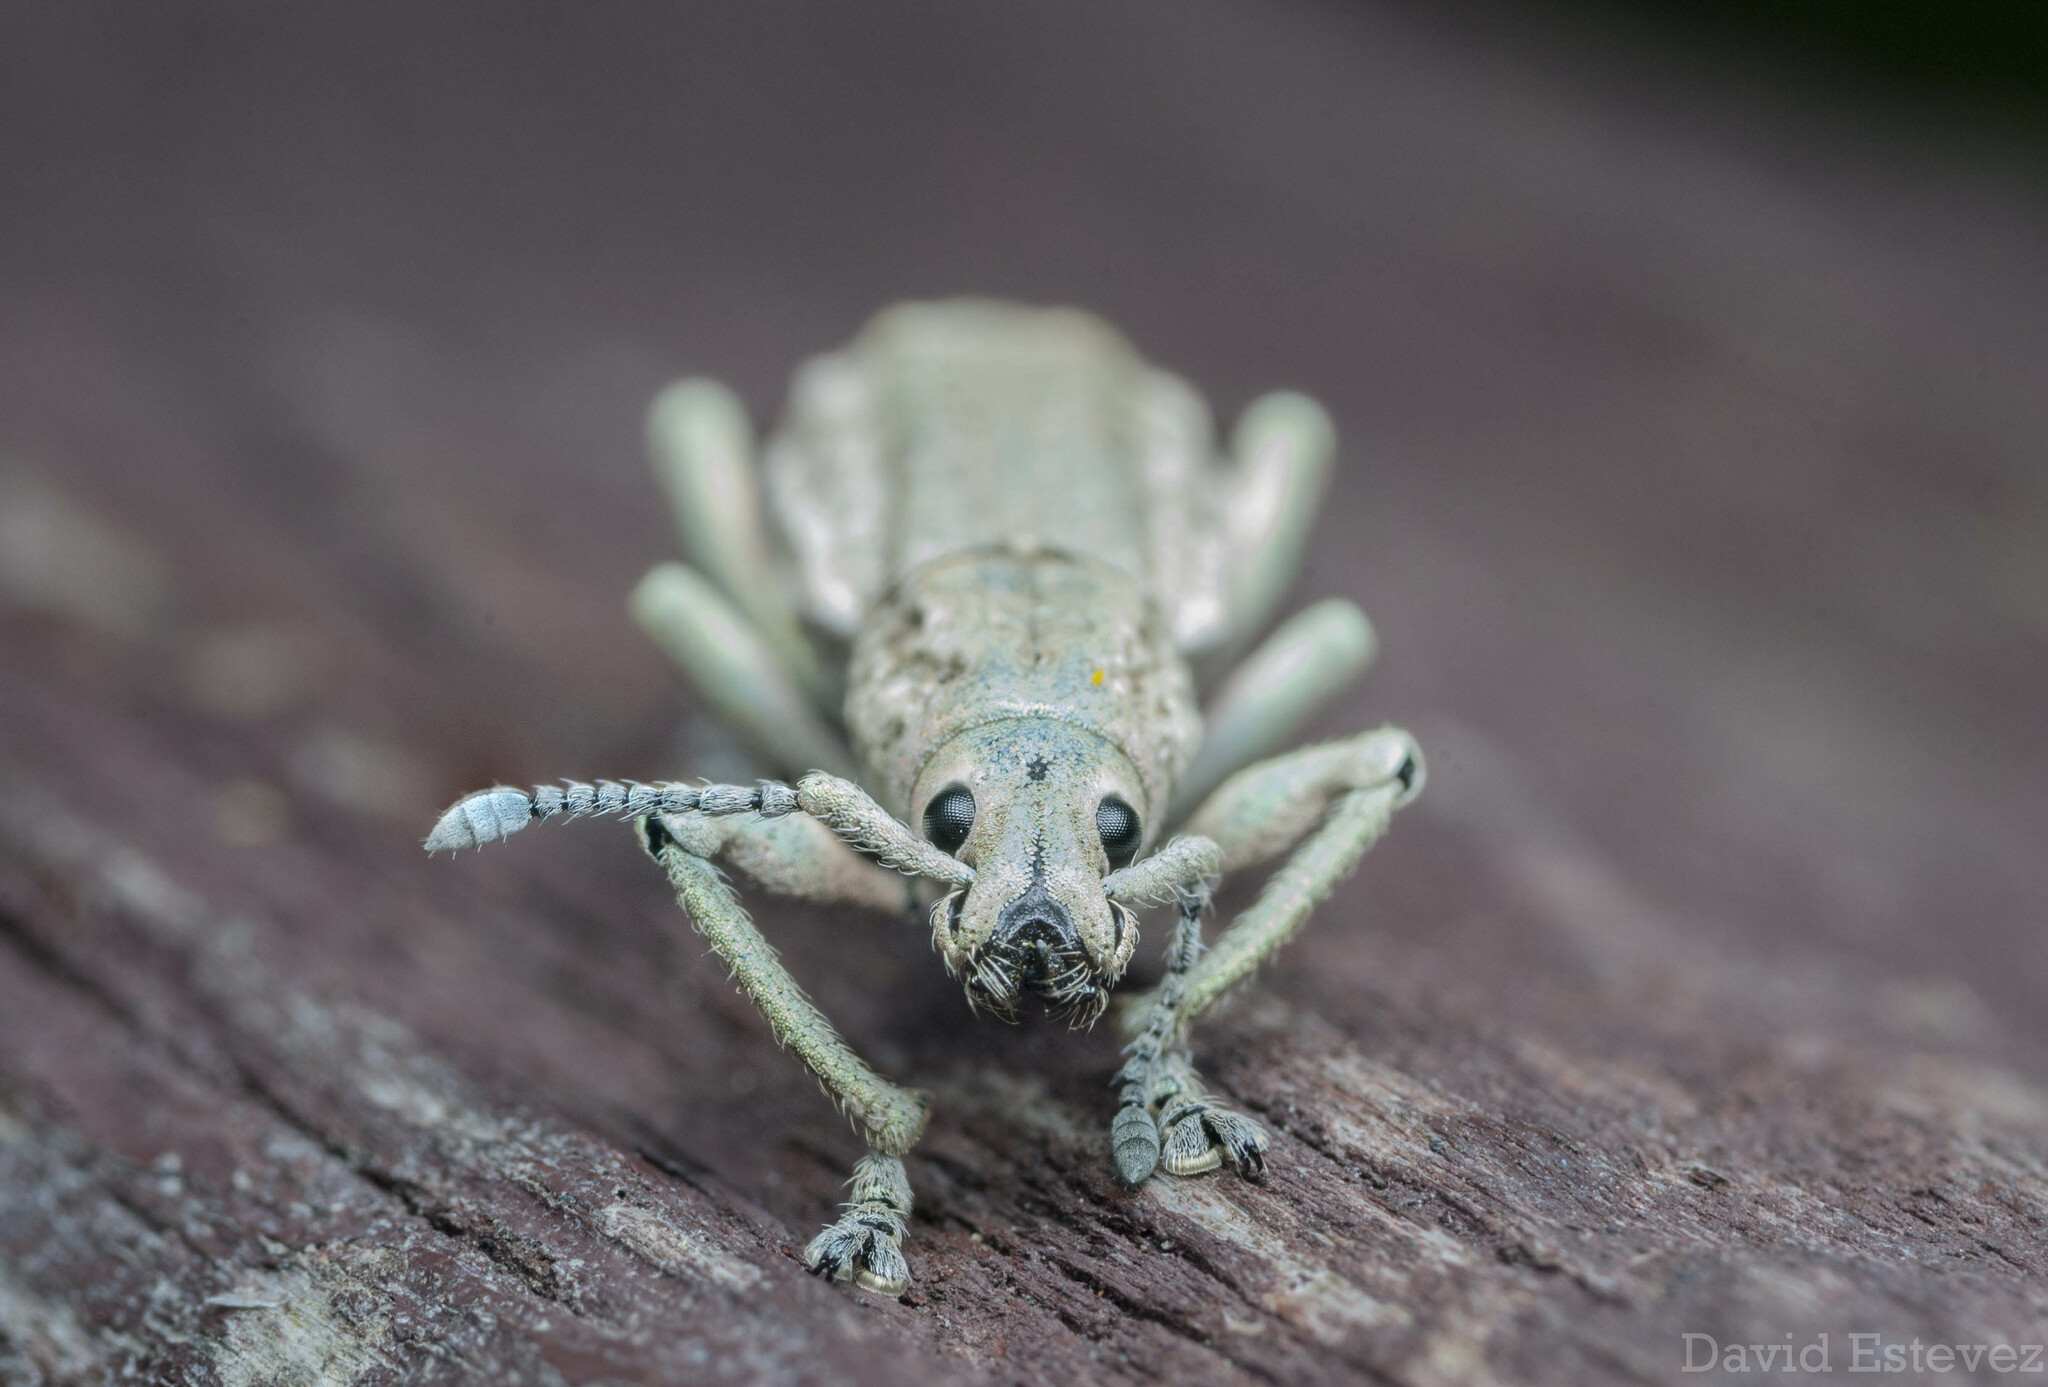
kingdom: Animalia
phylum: Arthropoda
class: Insecta
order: Coleoptera
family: Curculionidae
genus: Compsus
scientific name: Compsus canescens
